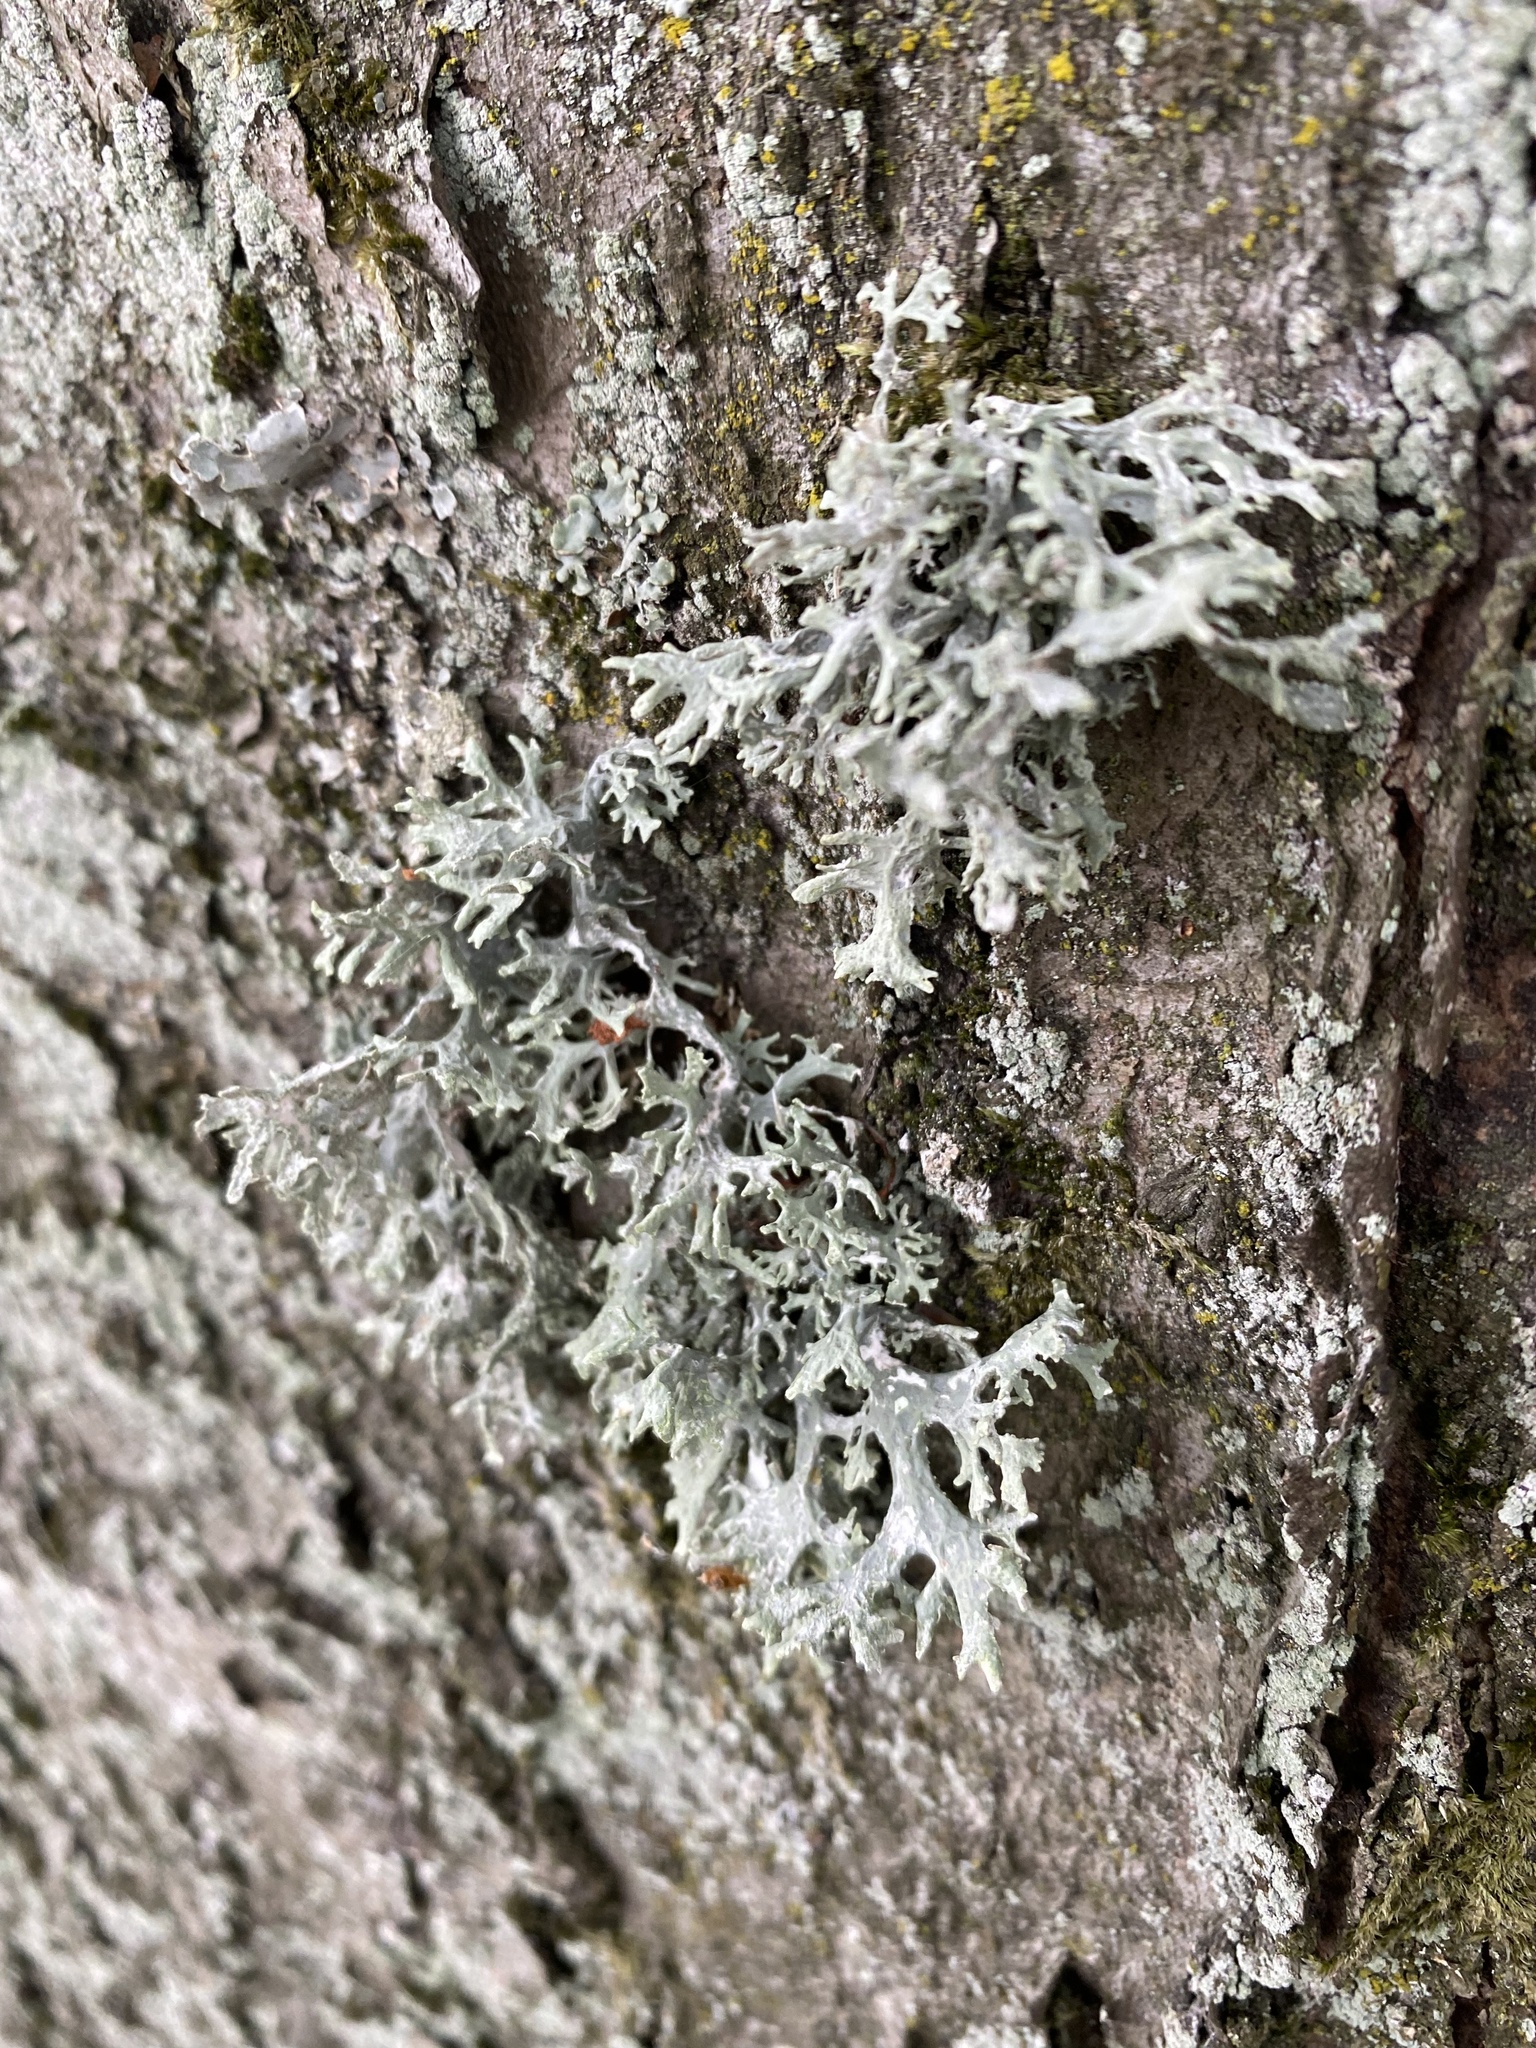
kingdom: Fungi
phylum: Ascomycota
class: Lecanoromycetes
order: Lecanorales
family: Parmeliaceae
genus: Evernia
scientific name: Evernia prunastri
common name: Oak moss
